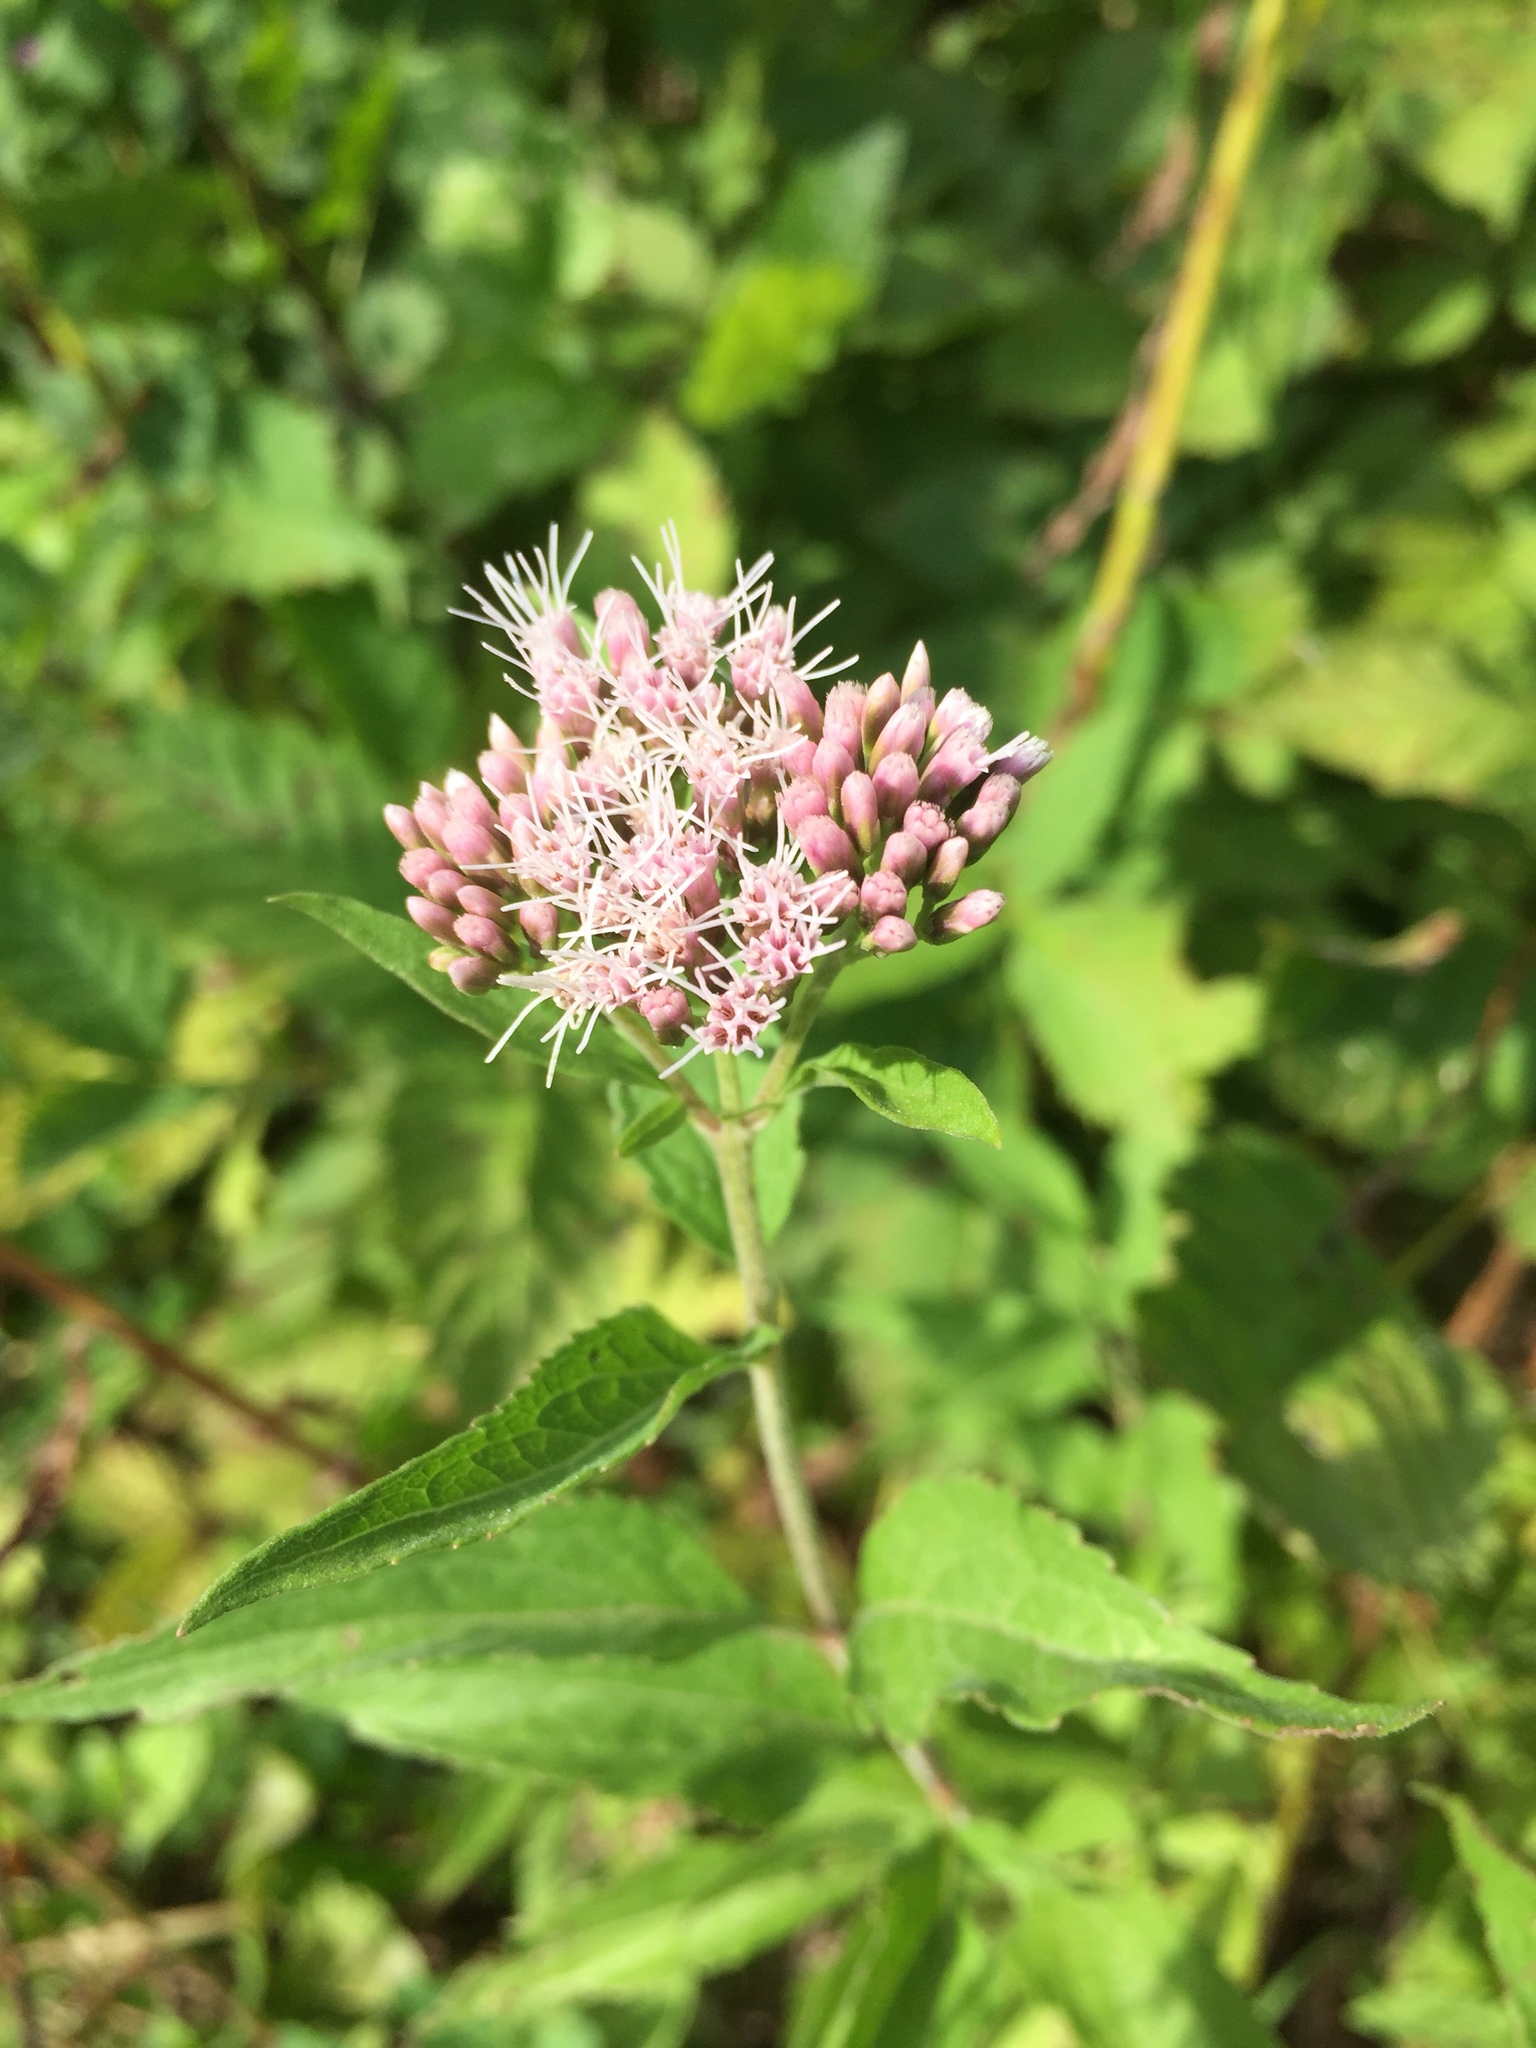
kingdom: Plantae
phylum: Tracheophyta
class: Magnoliopsida
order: Asterales
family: Asteraceae
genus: Eupatorium
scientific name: Eupatorium cannabinum
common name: Hemp-agrimony
